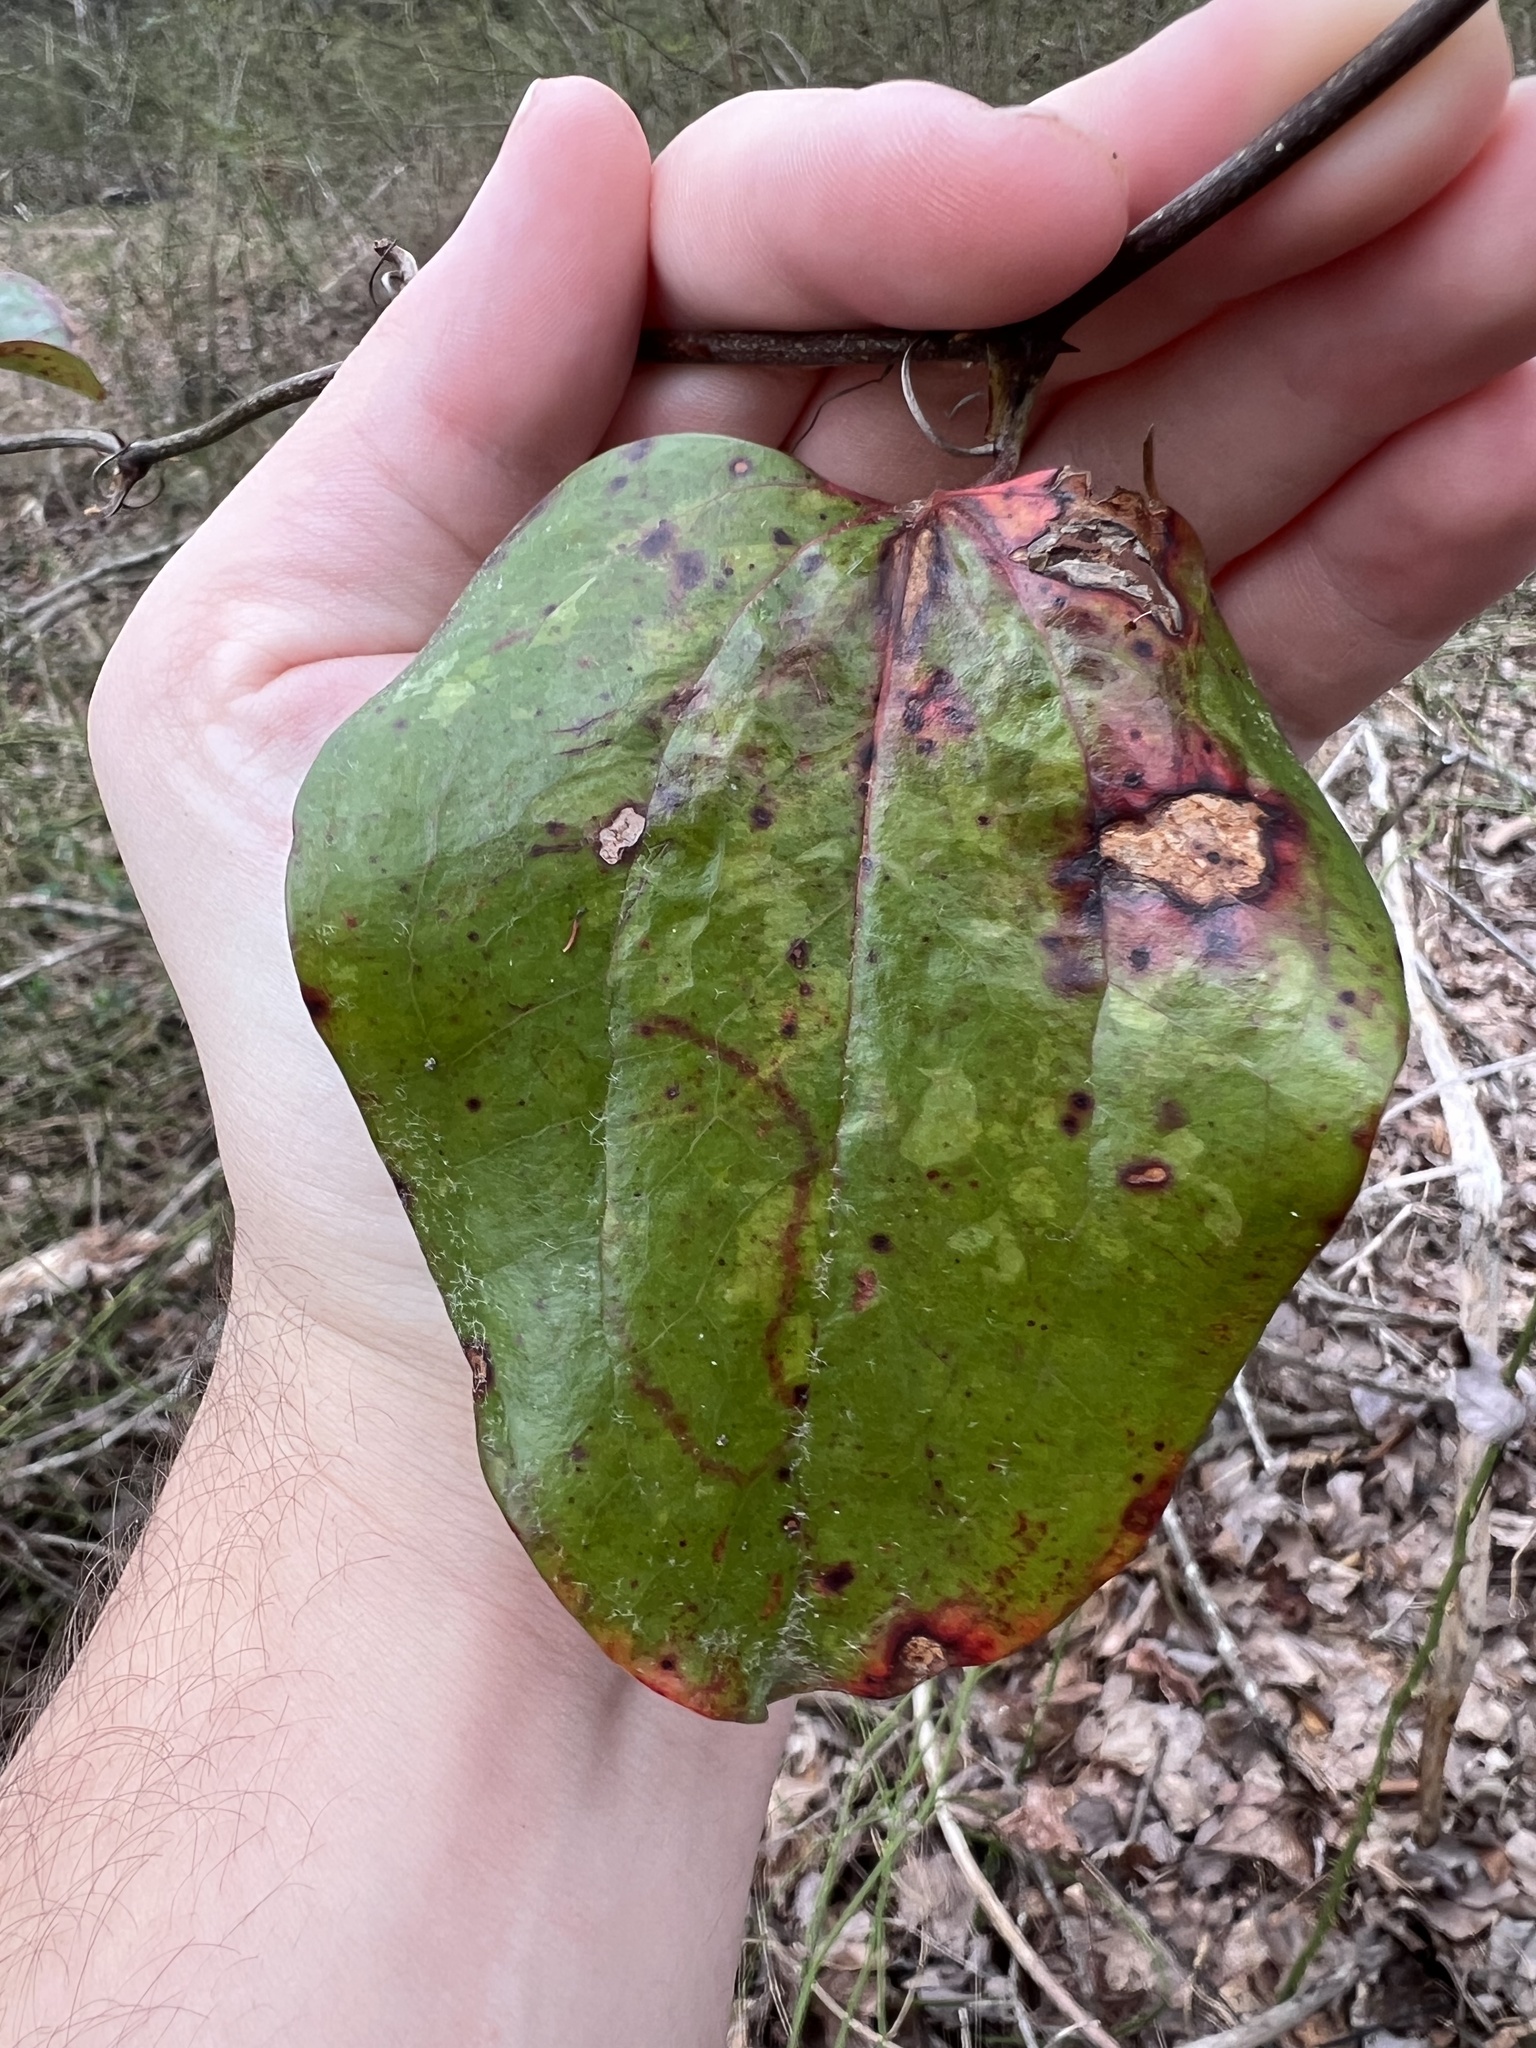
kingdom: Plantae
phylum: Tracheophyta
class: Liliopsida
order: Liliales
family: Smilacaceae
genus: Smilax
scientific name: Smilax glauca
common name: Cat greenbrier
